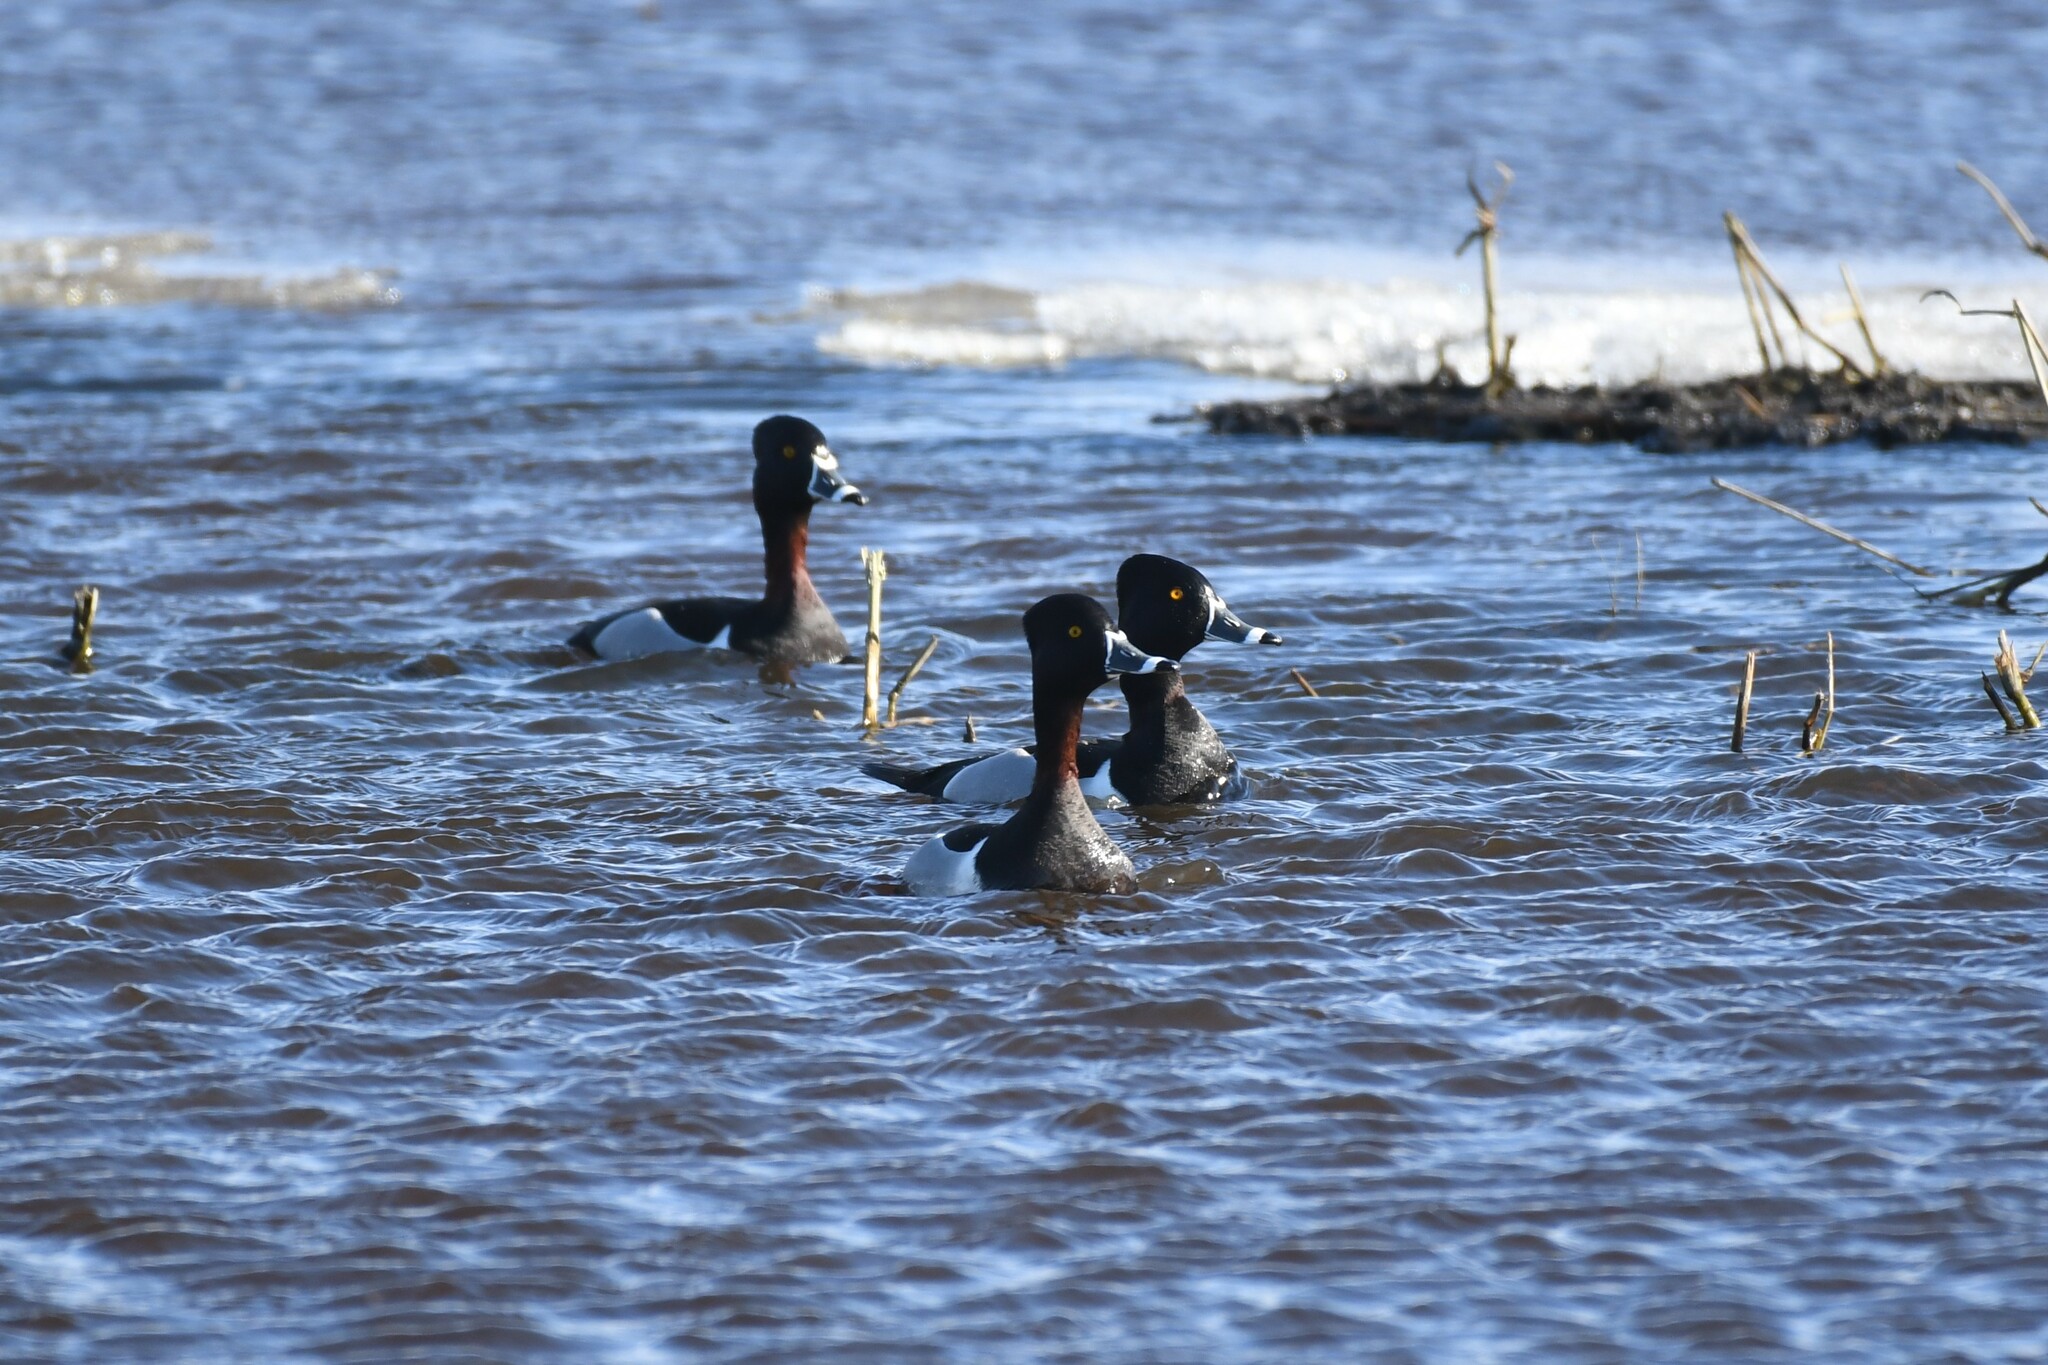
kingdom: Animalia
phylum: Chordata
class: Aves
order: Anseriformes
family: Anatidae
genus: Aythya
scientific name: Aythya collaris
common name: Ring-necked duck
